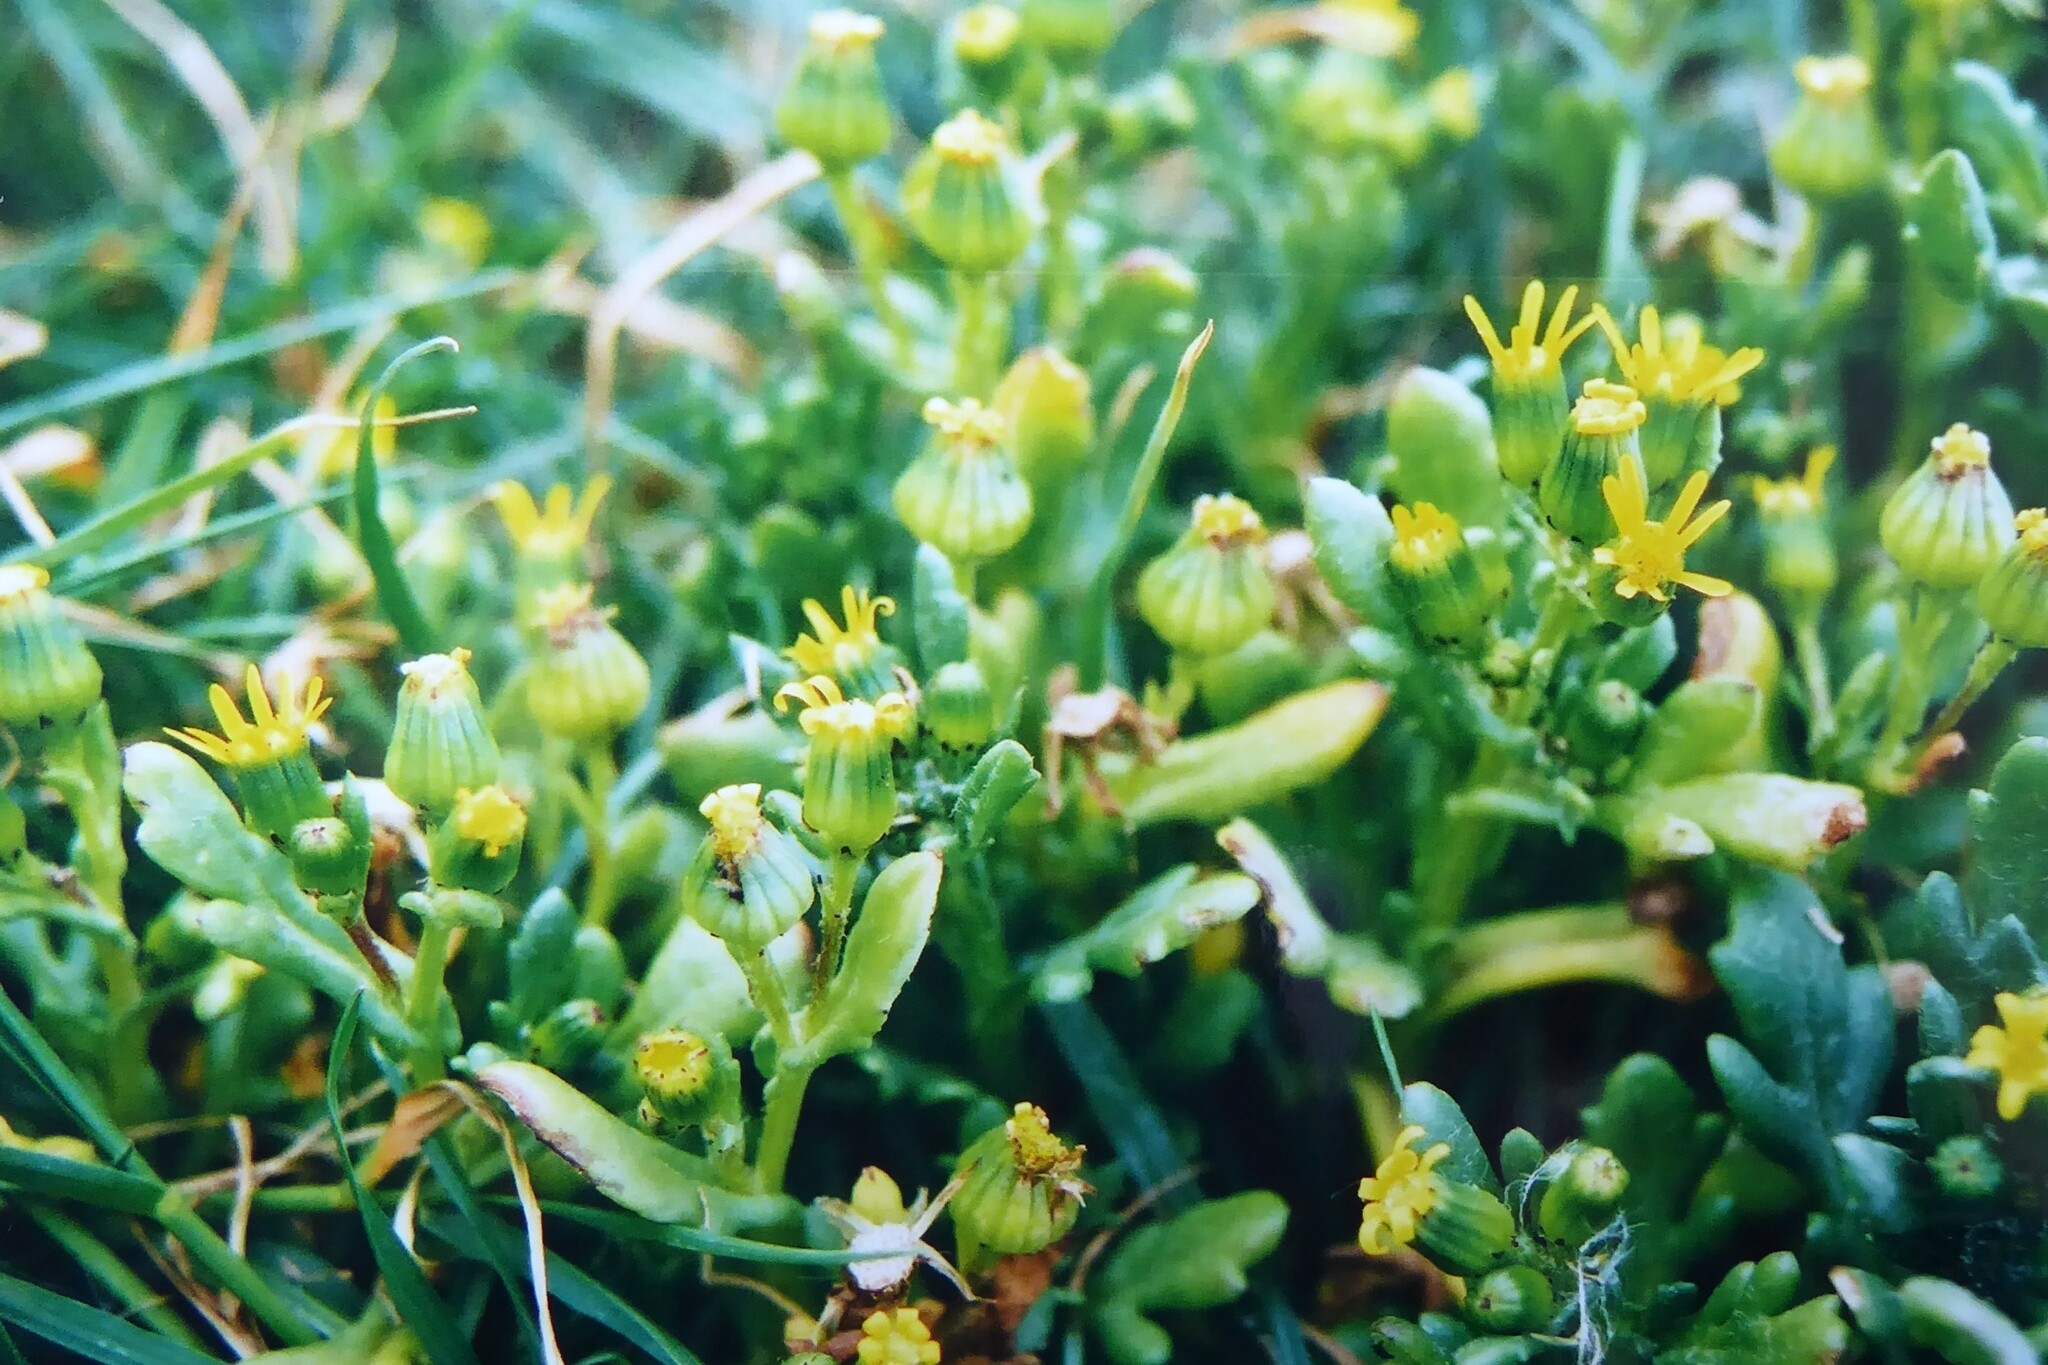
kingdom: Plantae
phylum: Tracheophyta
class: Magnoliopsida
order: Asterales
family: Asteraceae
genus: Senecio
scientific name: Senecio carnosulus
